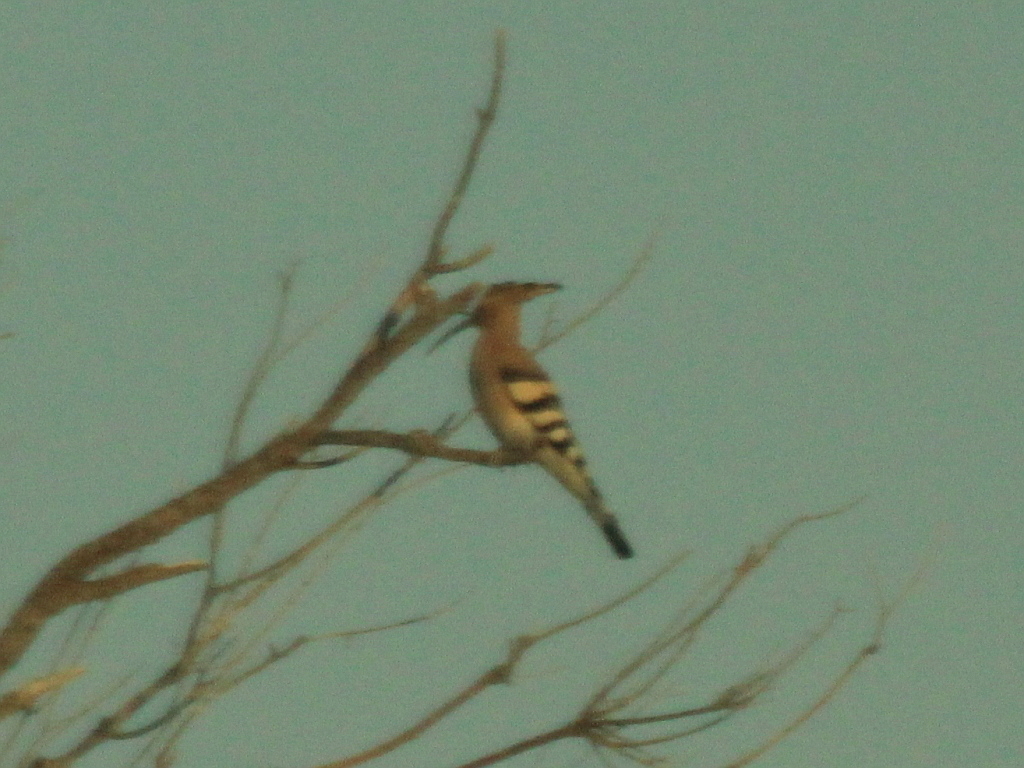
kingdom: Animalia
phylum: Chordata
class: Aves
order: Bucerotiformes
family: Upupidae
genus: Upupa
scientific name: Upupa epops
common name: Eurasian hoopoe
